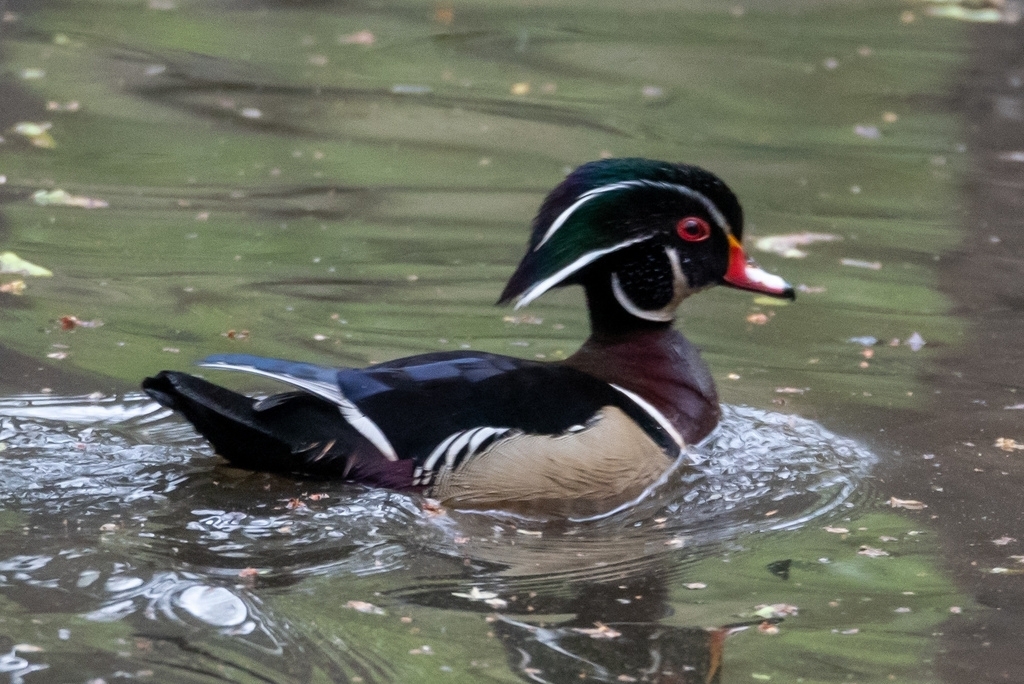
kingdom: Animalia
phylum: Chordata
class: Aves
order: Anseriformes
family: Anatidae
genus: Aix
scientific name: Aix sponsa
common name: Wood duck
